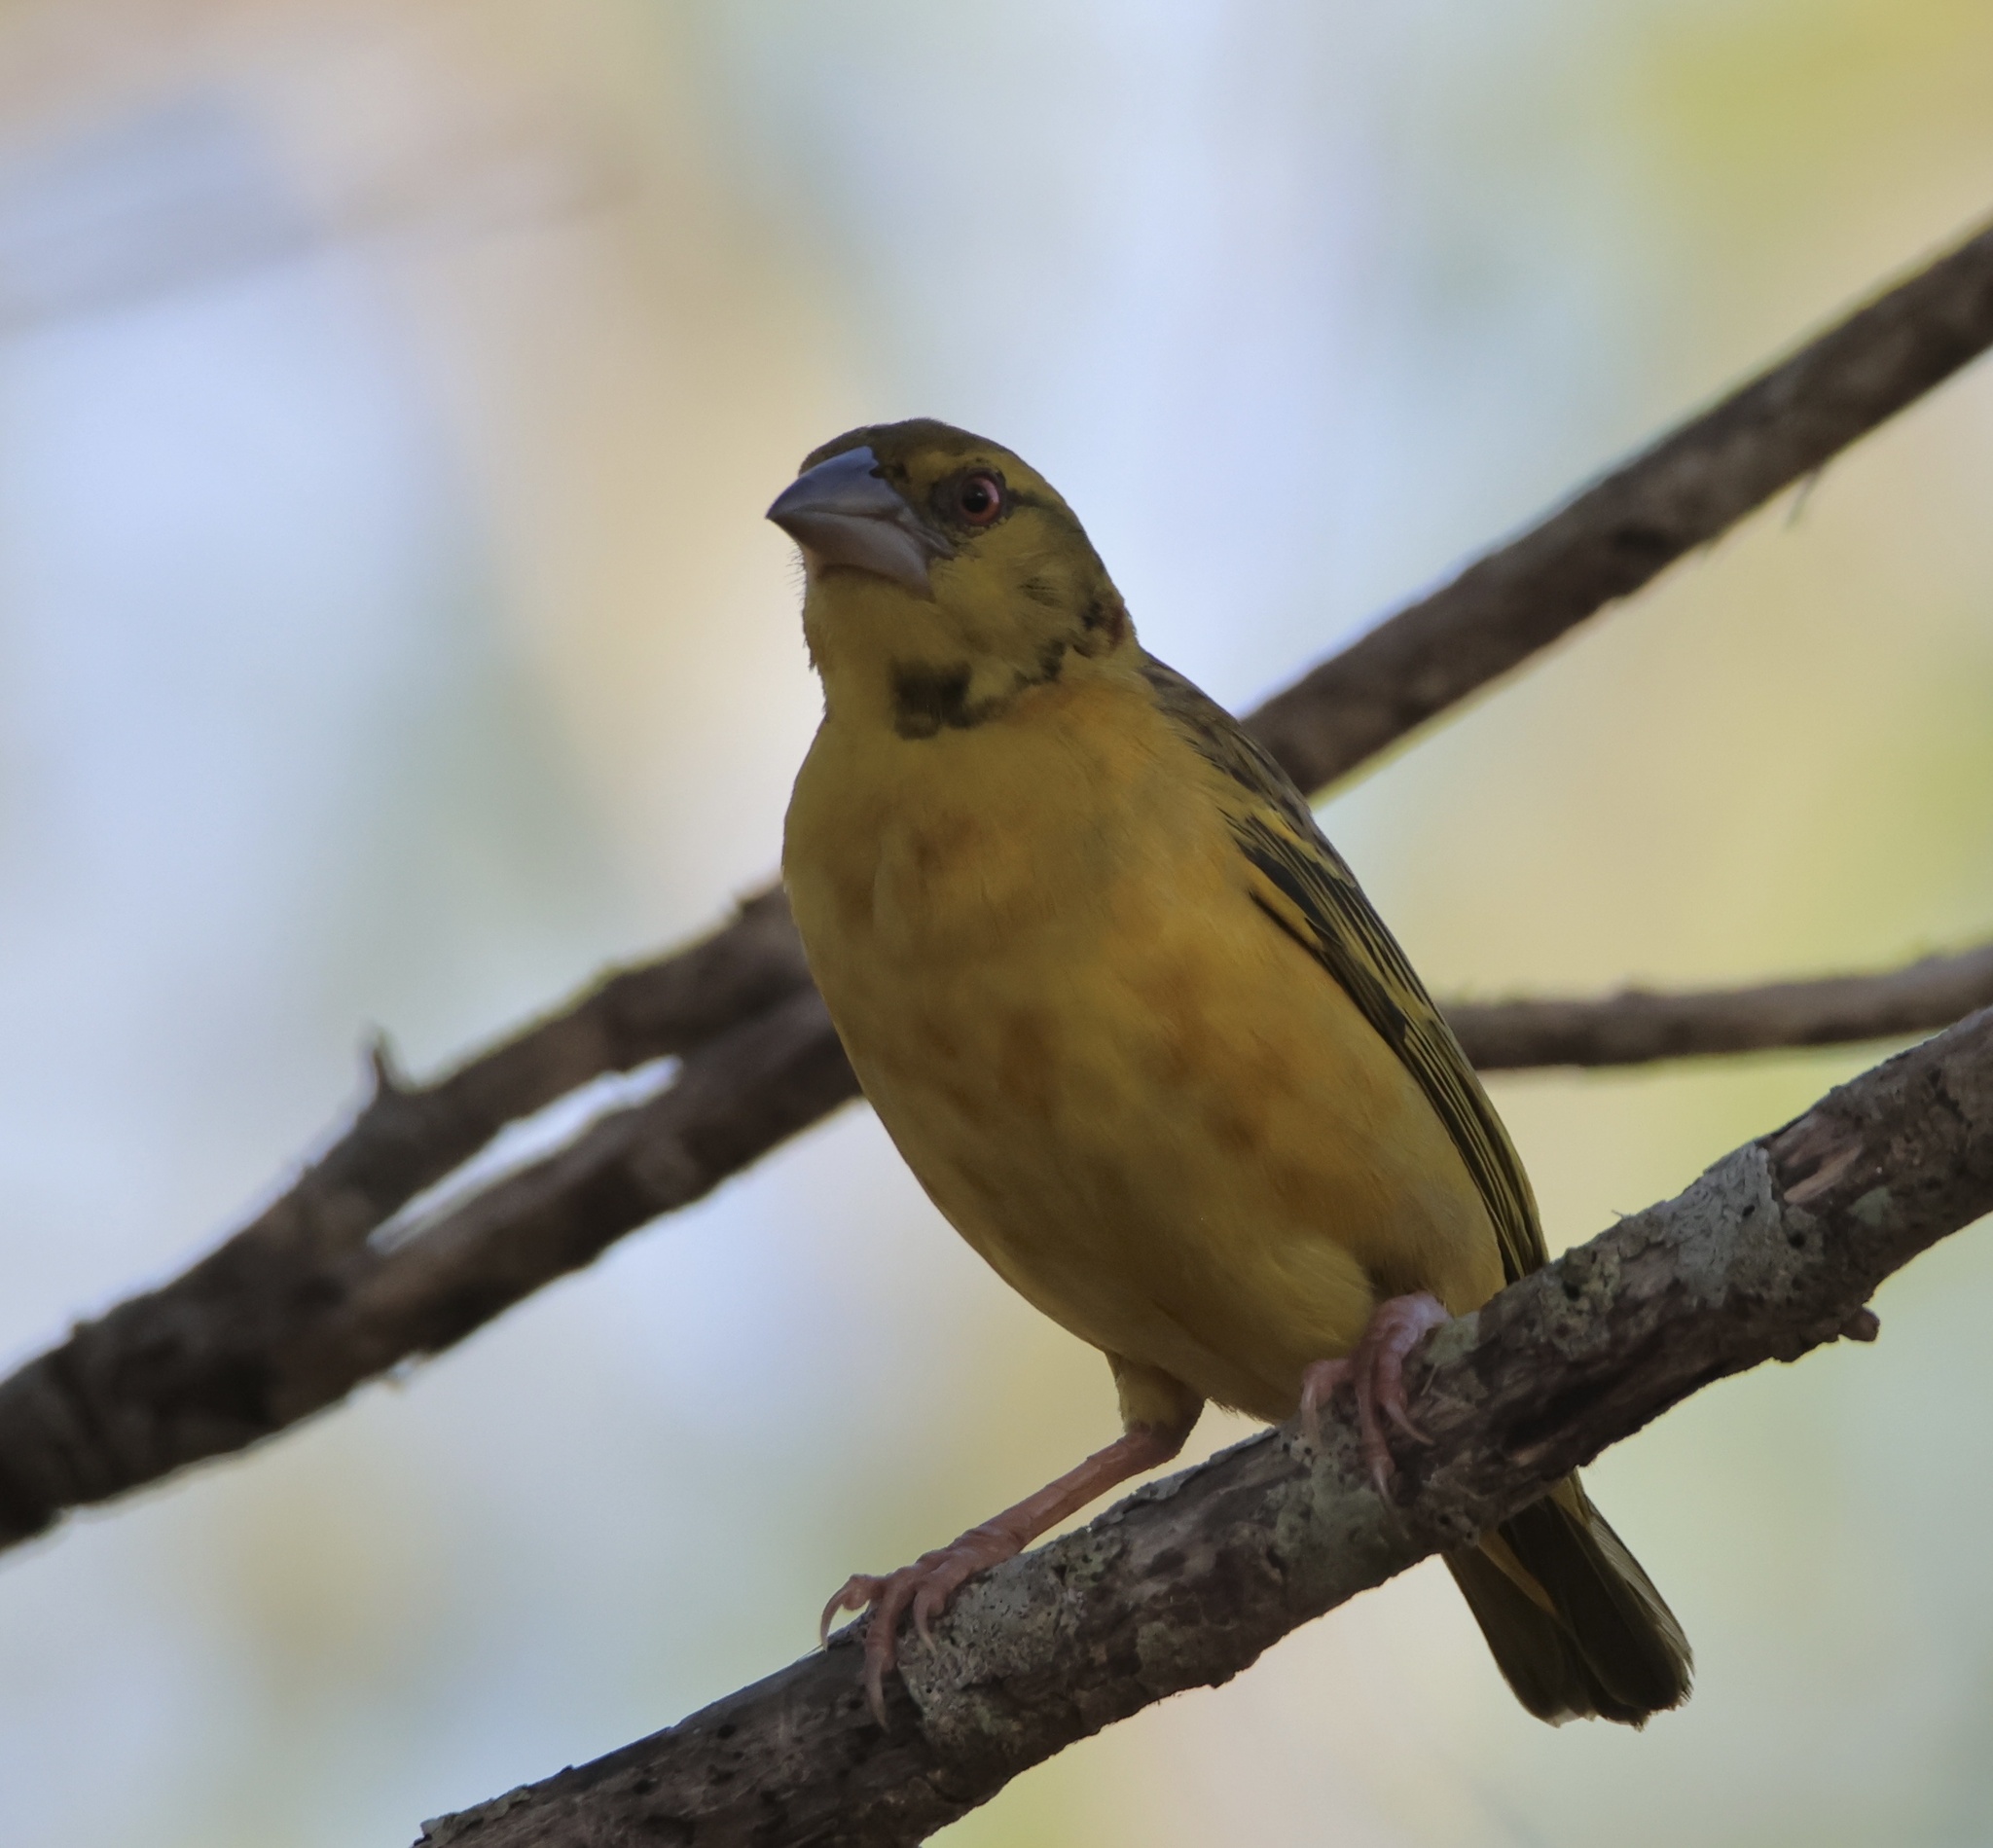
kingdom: Animalia
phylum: Chordata
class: Aves
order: Passeriformes
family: Ploceidae
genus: Ploceus
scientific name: Ploceus cucullatus
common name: Village weaver
